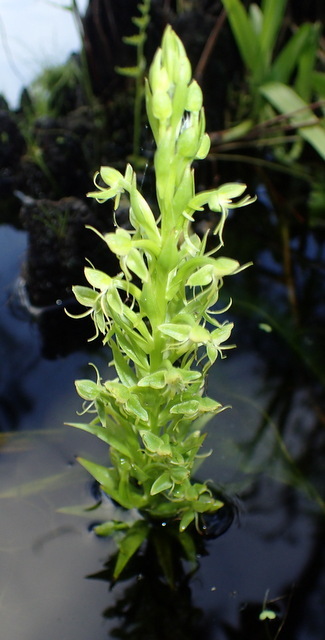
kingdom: Plantae
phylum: Tracheophyta
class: Liliopsida
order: Asparagales
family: Orchidaceae
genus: Habenaria
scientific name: Habenaria repens
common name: Water orchid
